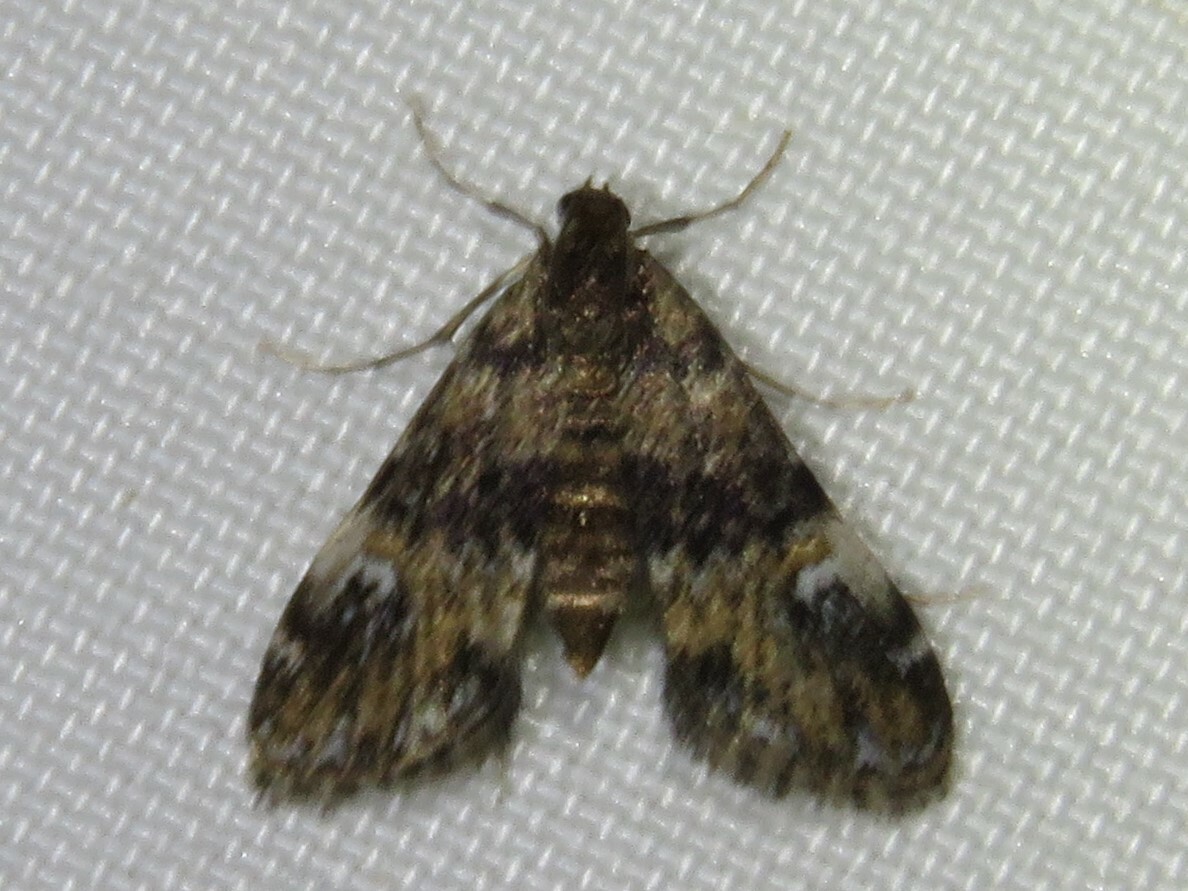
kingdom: Animalia
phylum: Arthropoda
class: Insecta
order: Lepidoptera
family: Crambidae
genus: Elophila
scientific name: Elophila obliteralis
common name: Waterlily leafcutter moth
